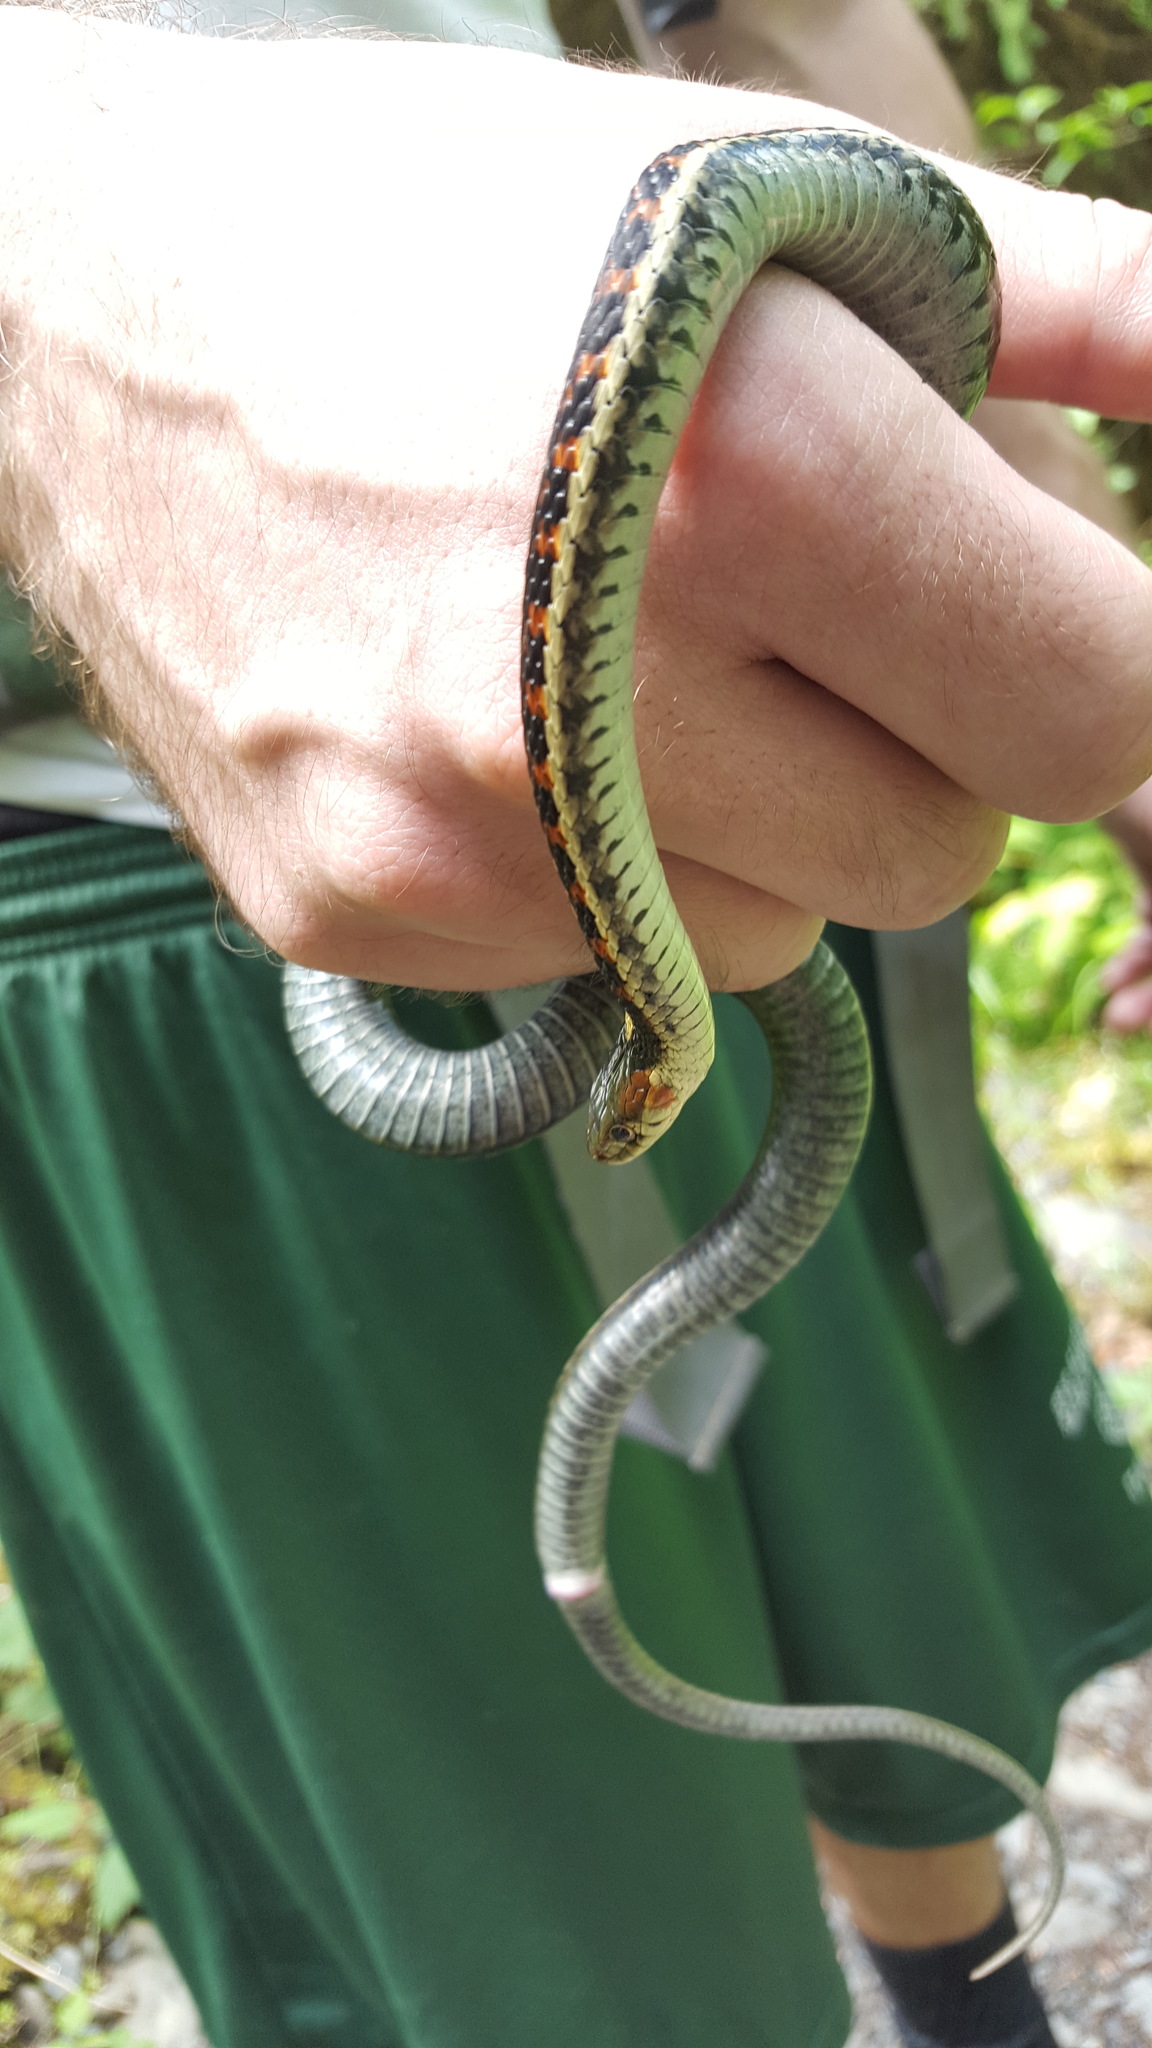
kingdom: Animalia
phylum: Chordata
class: Squamata
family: Colubridae
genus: Thamnophis
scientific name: Thamnophis sirtalis
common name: Common garter snake
